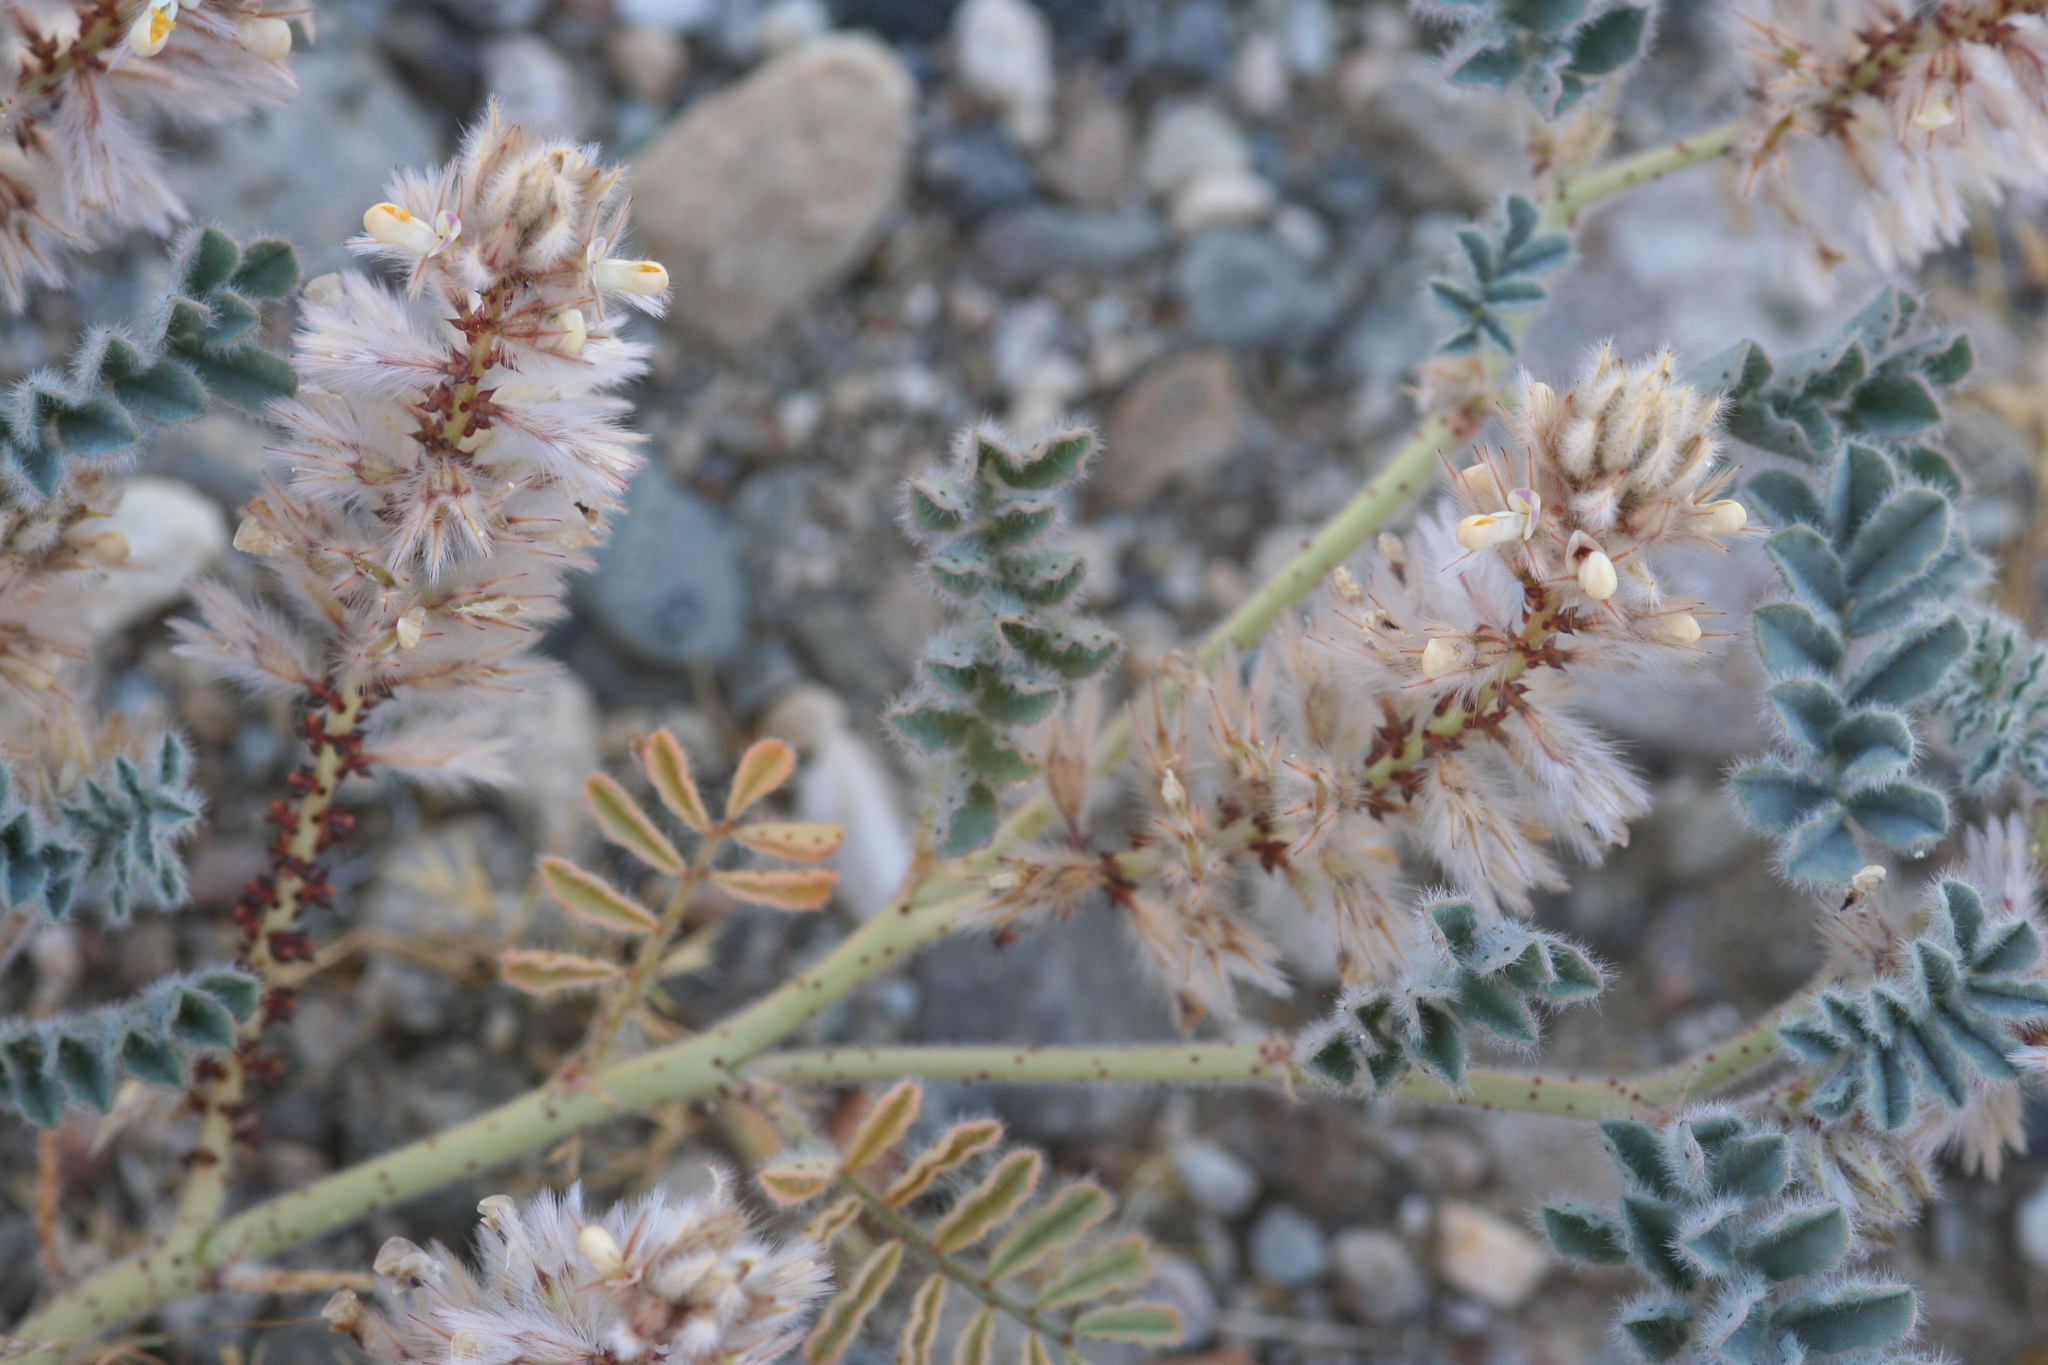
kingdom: Plantae
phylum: Tracheophyta
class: Magnoliopsida
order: Fabales
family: Fabaceae
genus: Dalea
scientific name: Dalea mollissima
